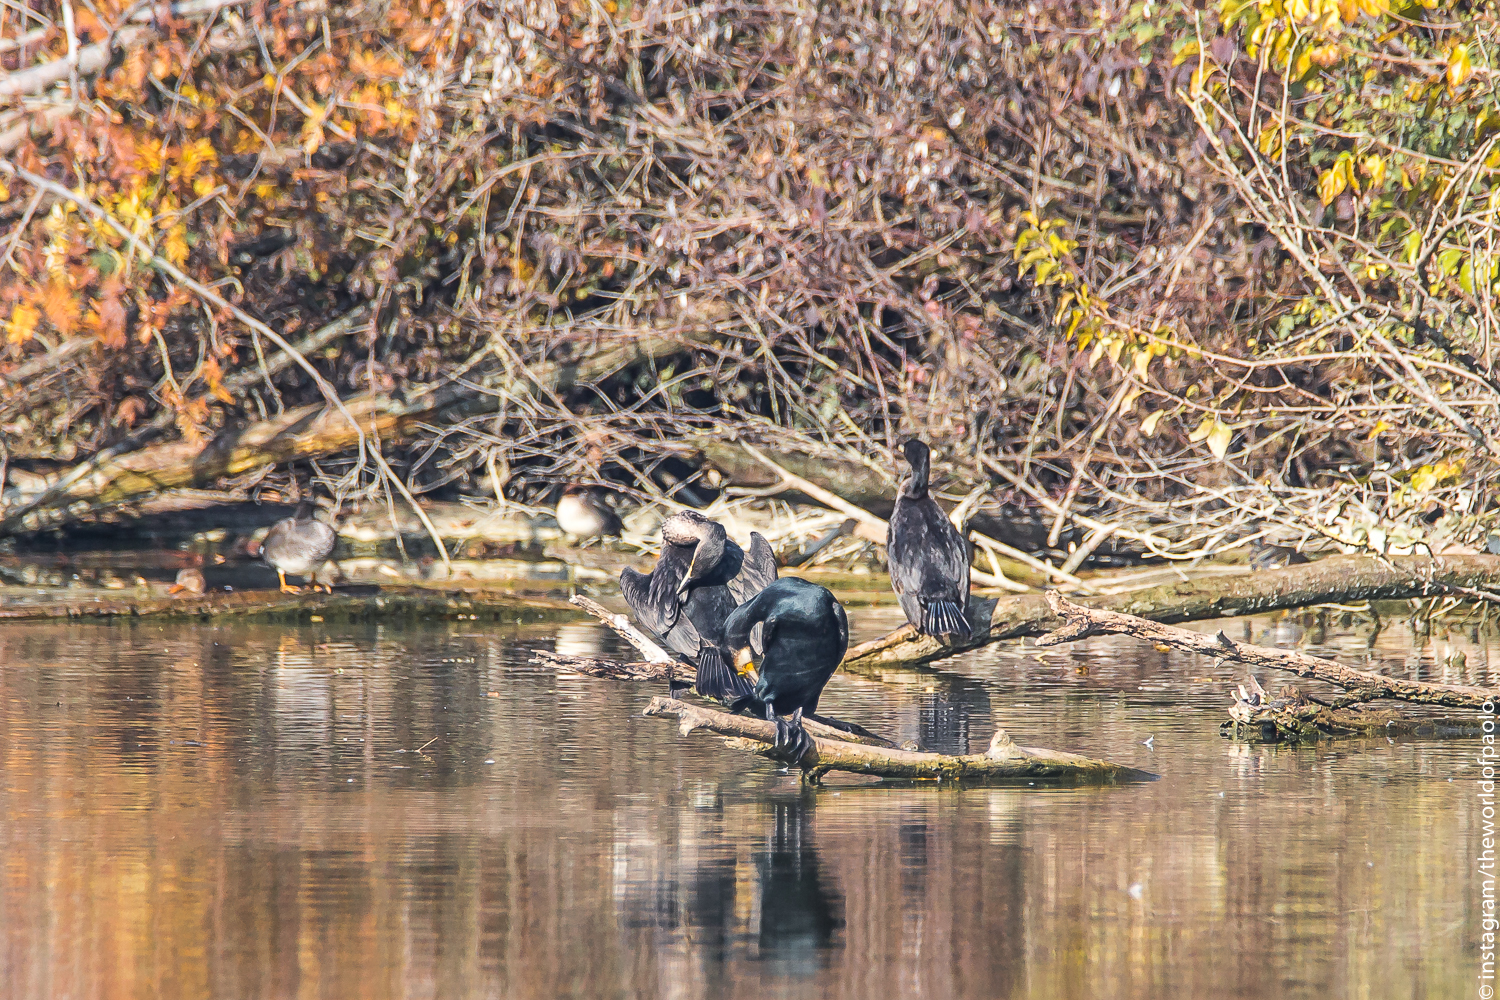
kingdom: Animalia
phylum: Chordata
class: Aves
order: Suliformes
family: Phalacrocoracidae
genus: Phalacrocorax
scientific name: Phalacrocorax carbo
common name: Great cormorant
